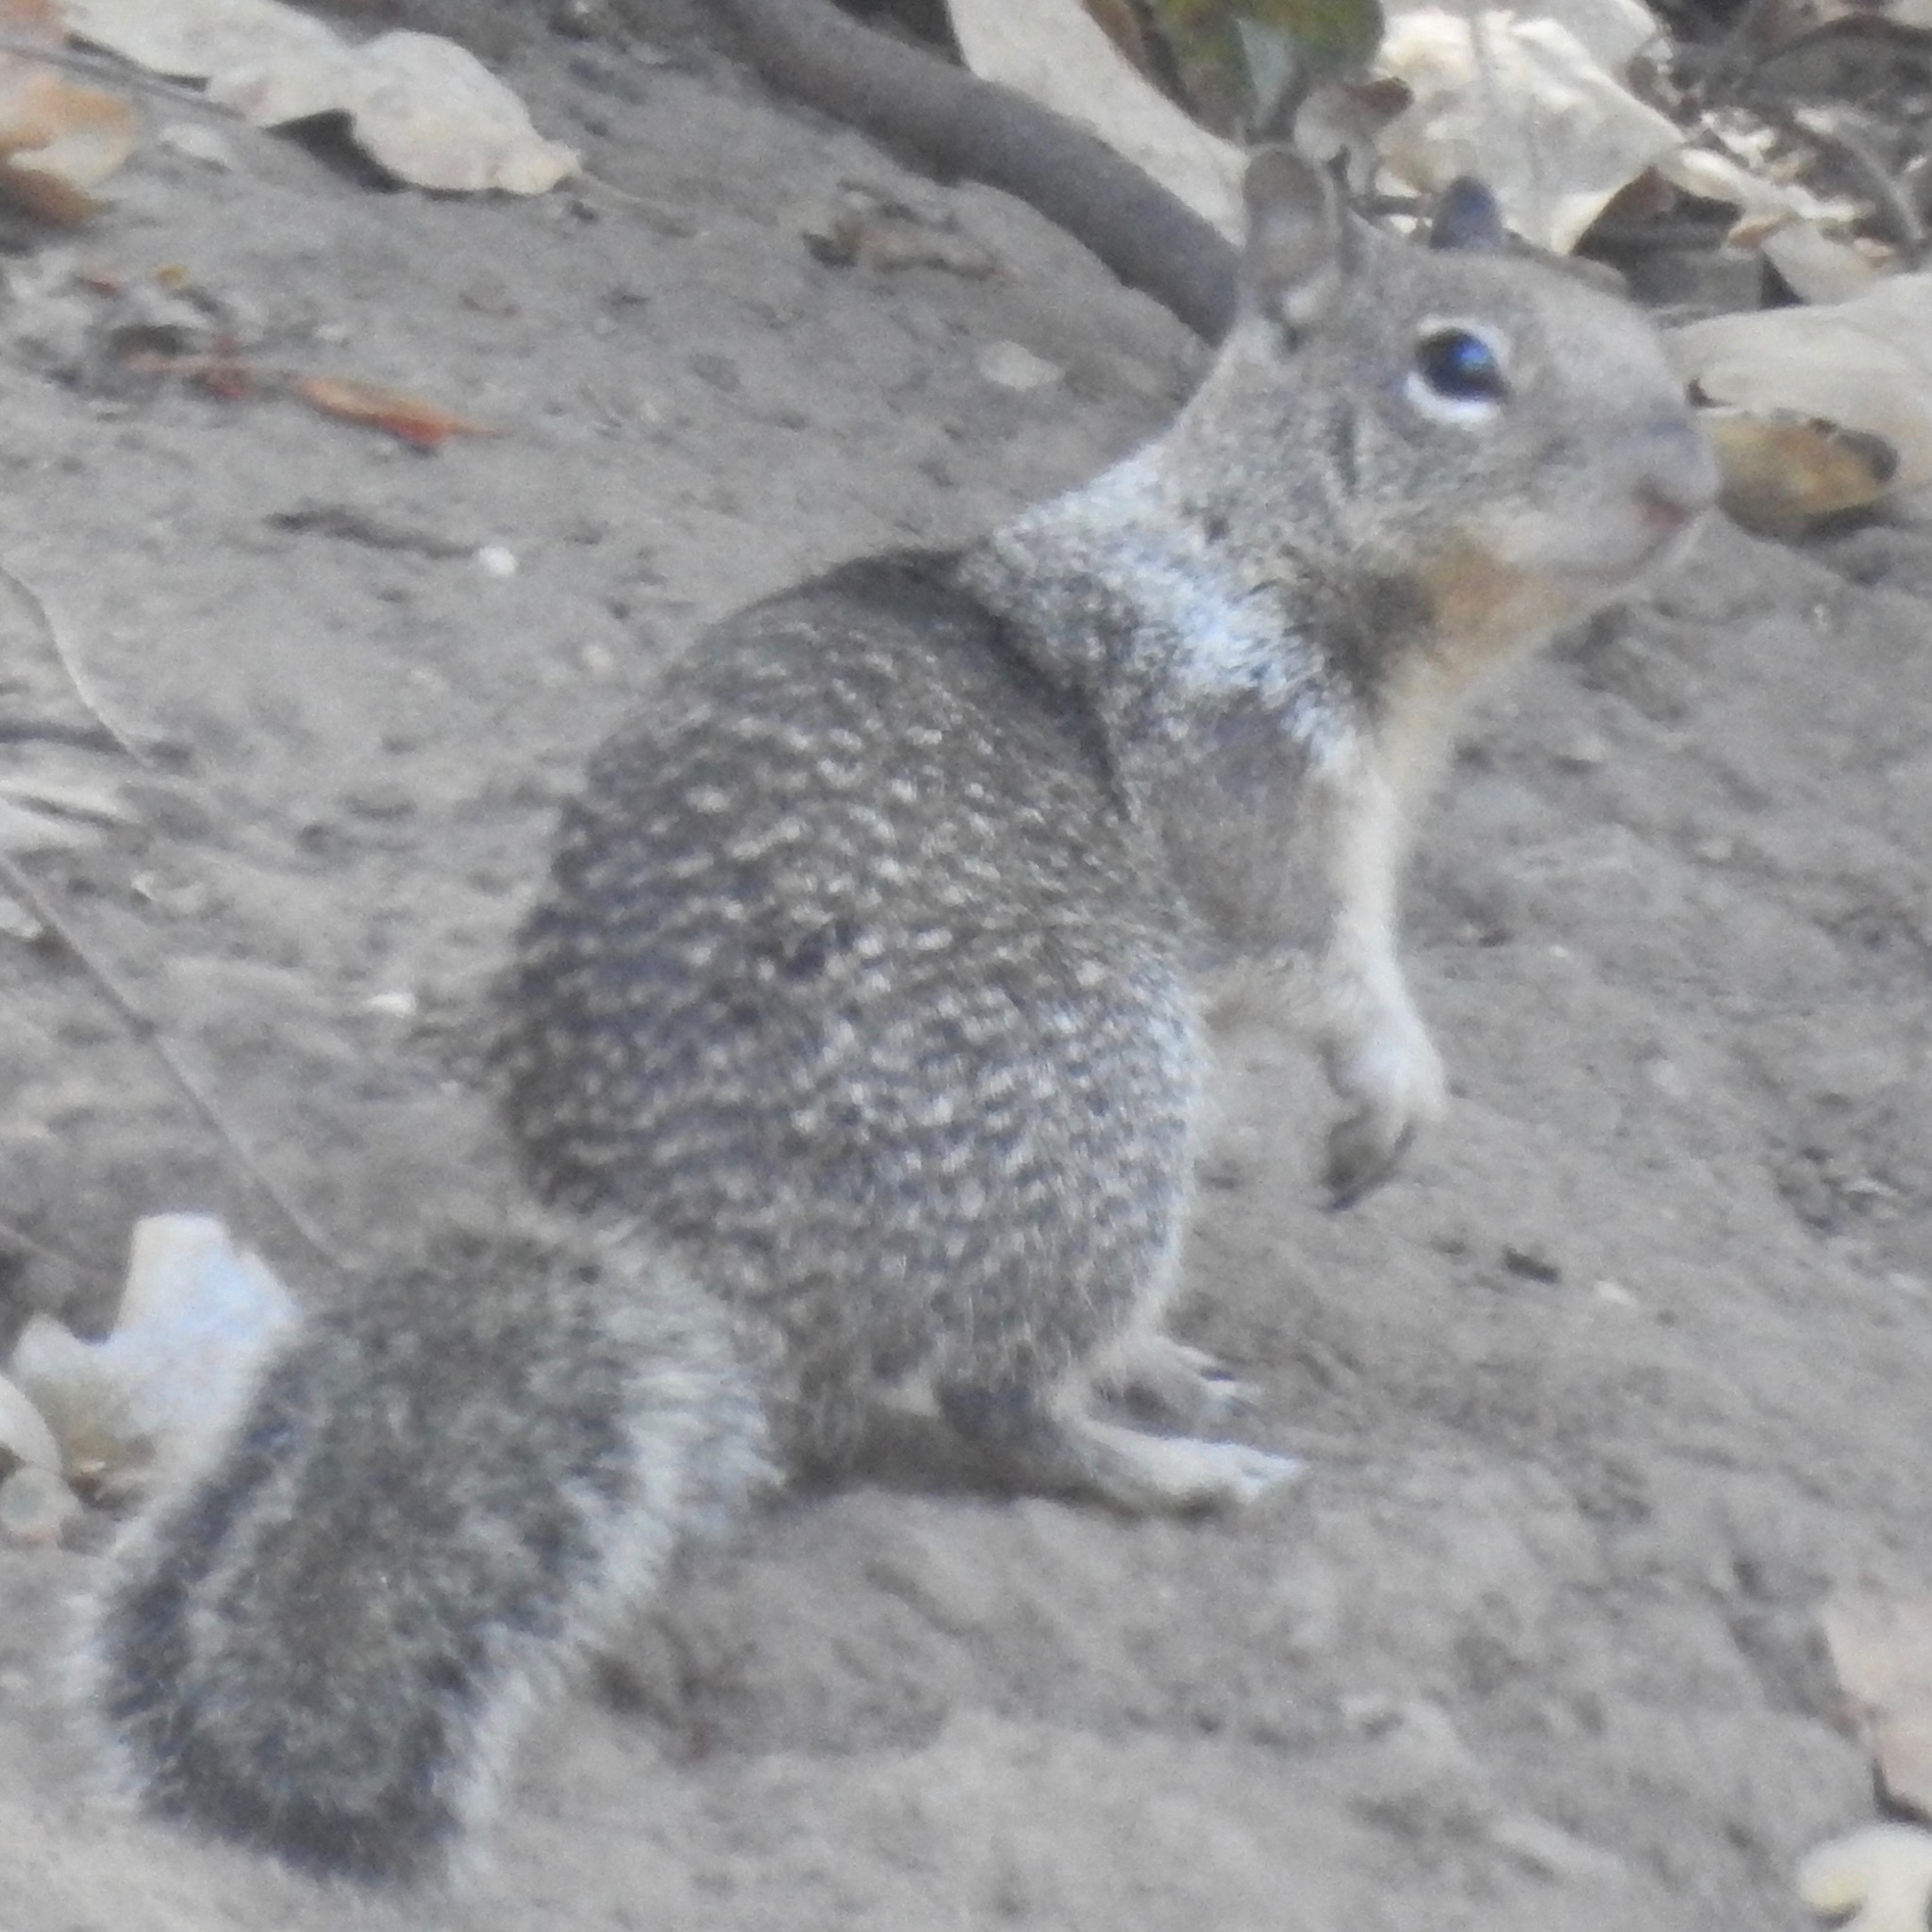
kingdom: Animalia
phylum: Chordata
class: Mammalia
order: Rodentia
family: Sciuridae
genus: Otospermophilus
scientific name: Otospermophilus beecheyi
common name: California ground squirrel
